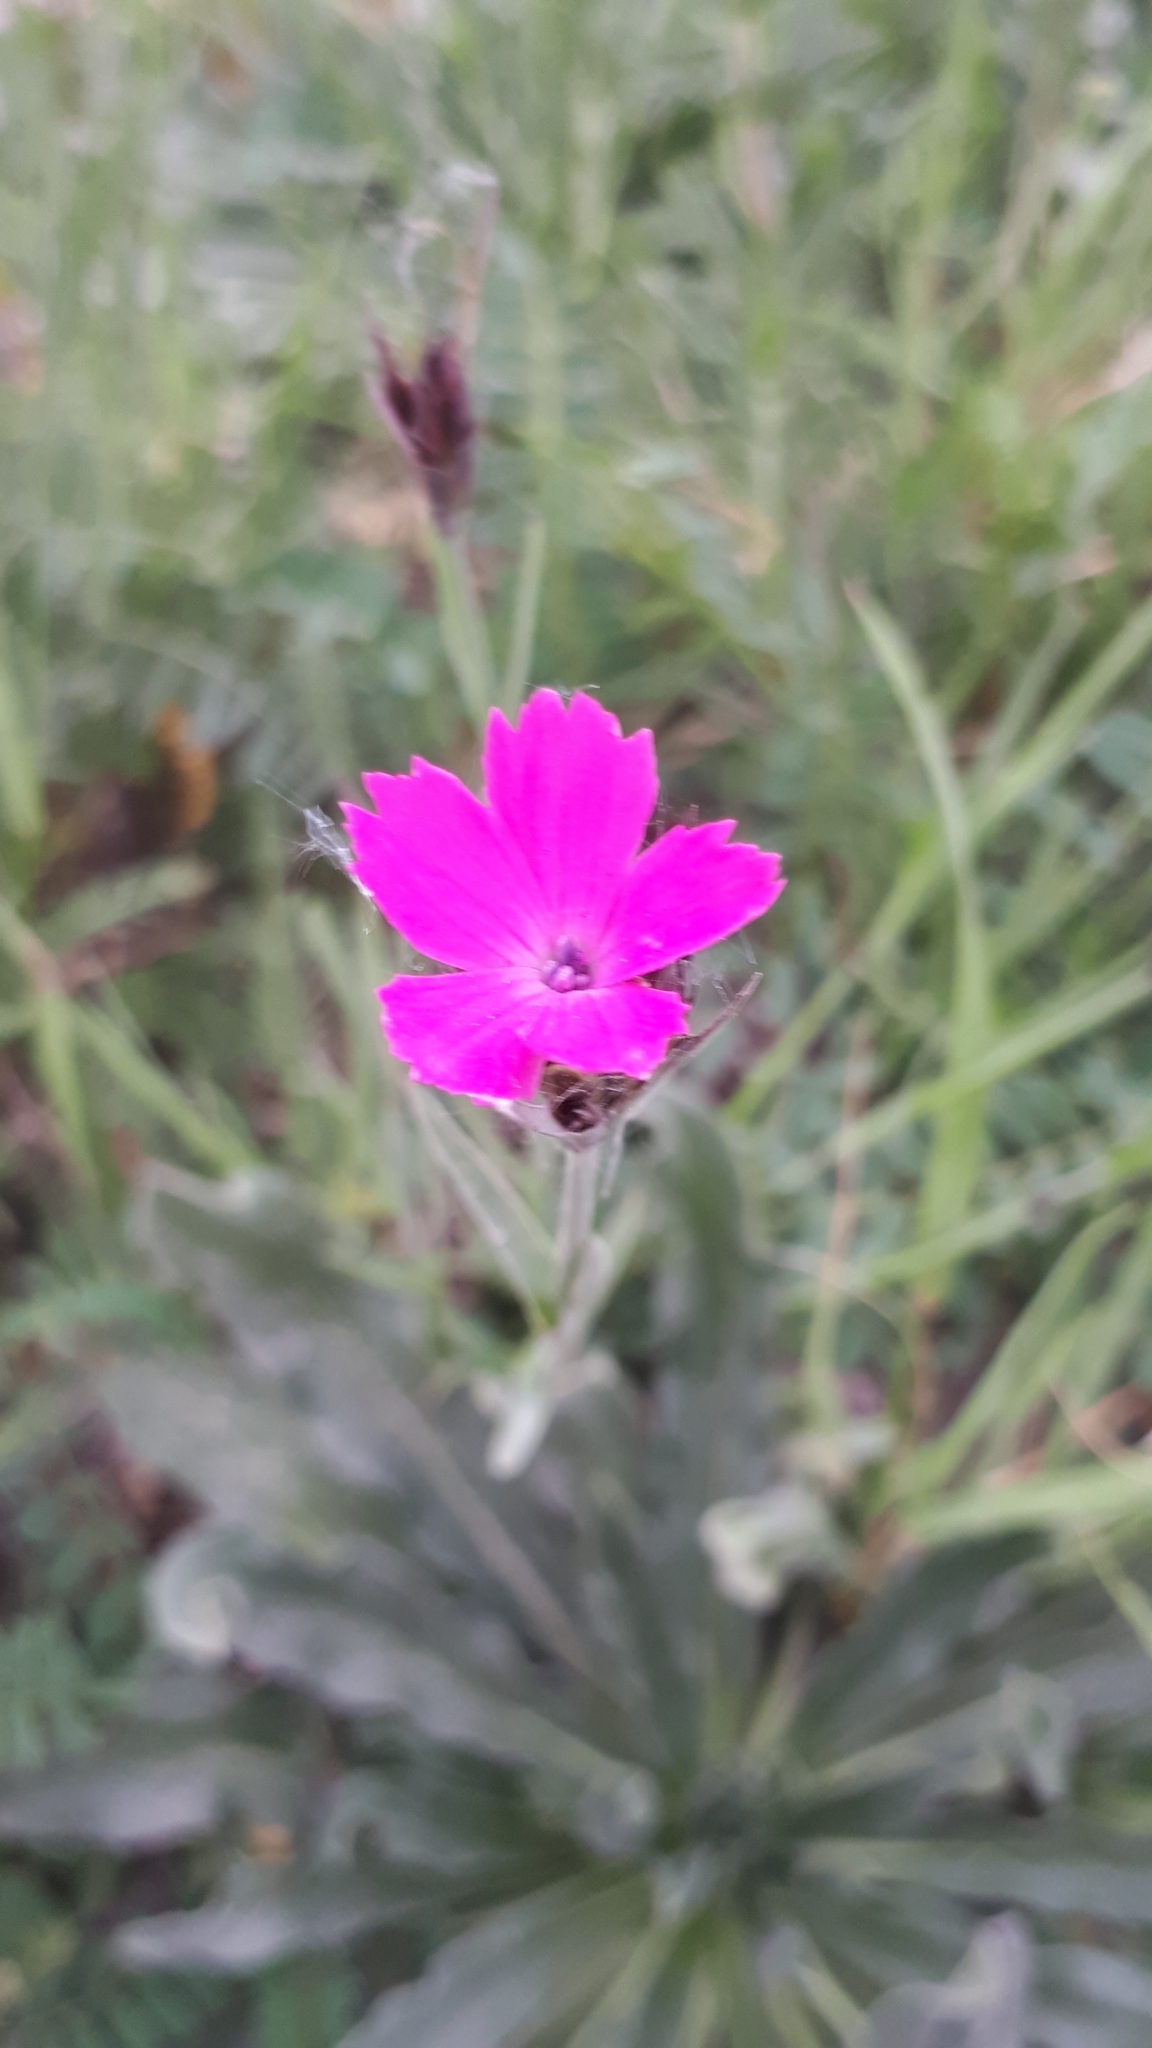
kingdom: Plantae
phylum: Tracheophyta
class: Magnoliopsida
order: Caryophyllales
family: Caryophyllaceae
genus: Dianthus
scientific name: Dianthus carthusianorum
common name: Carthusian pink
